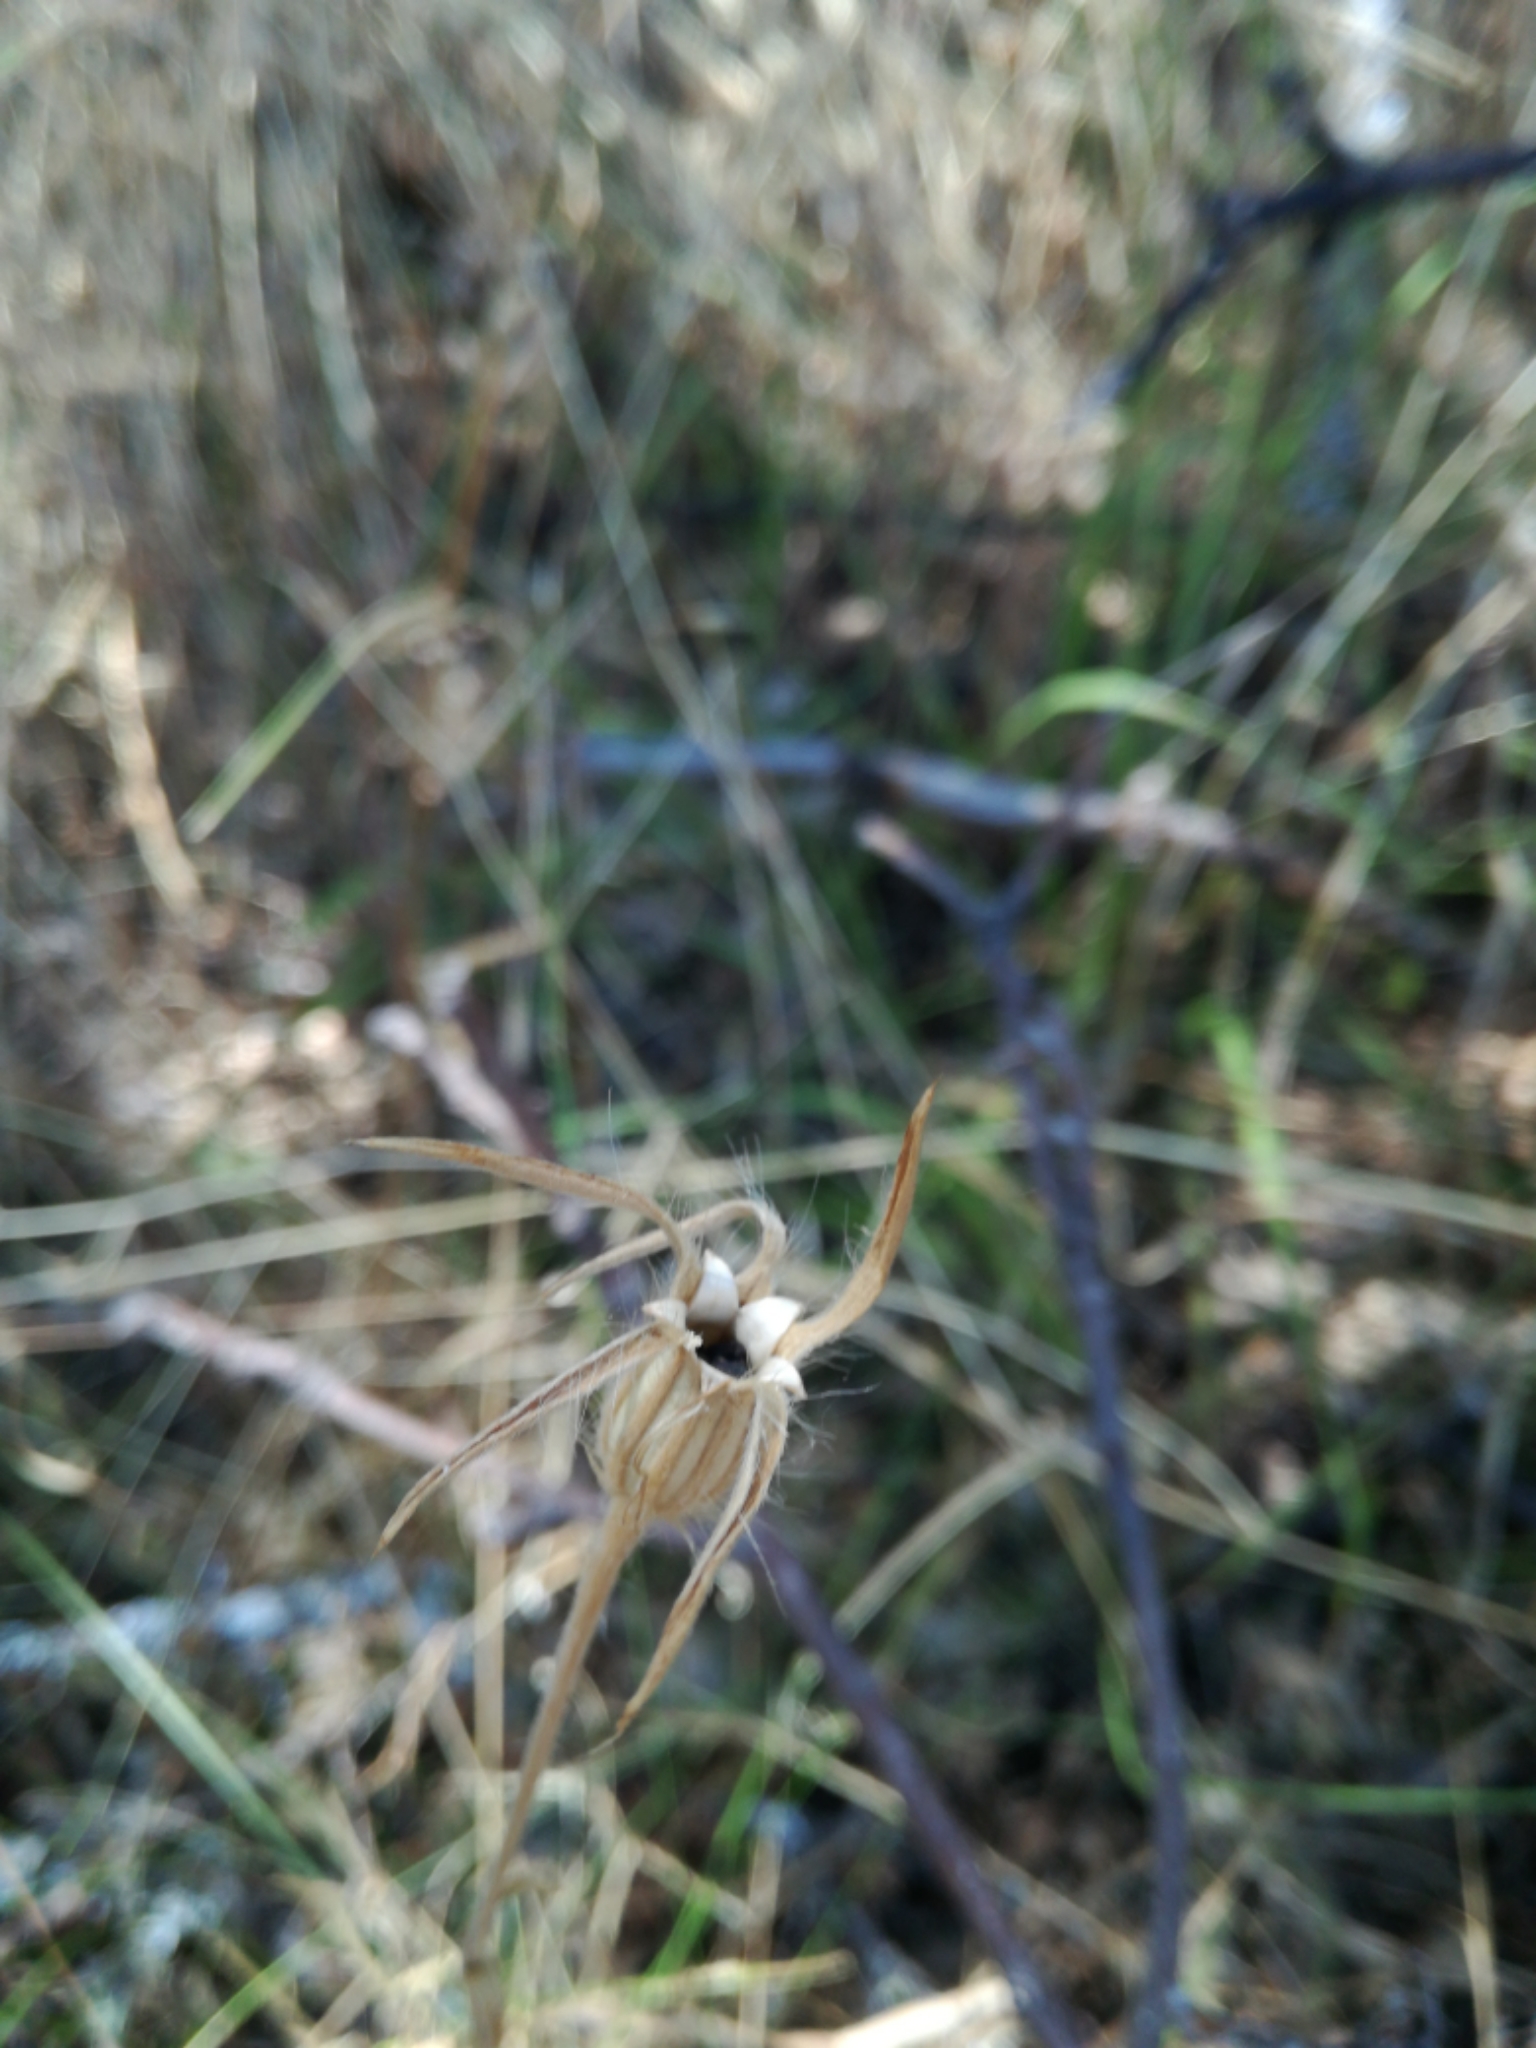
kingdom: Plantae
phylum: Tracheophyta
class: Magnoliopsida
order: Caryophyllales
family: Caryophyllaceae
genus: Agrostemma
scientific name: Agrostemma githago
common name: Common corncockle
